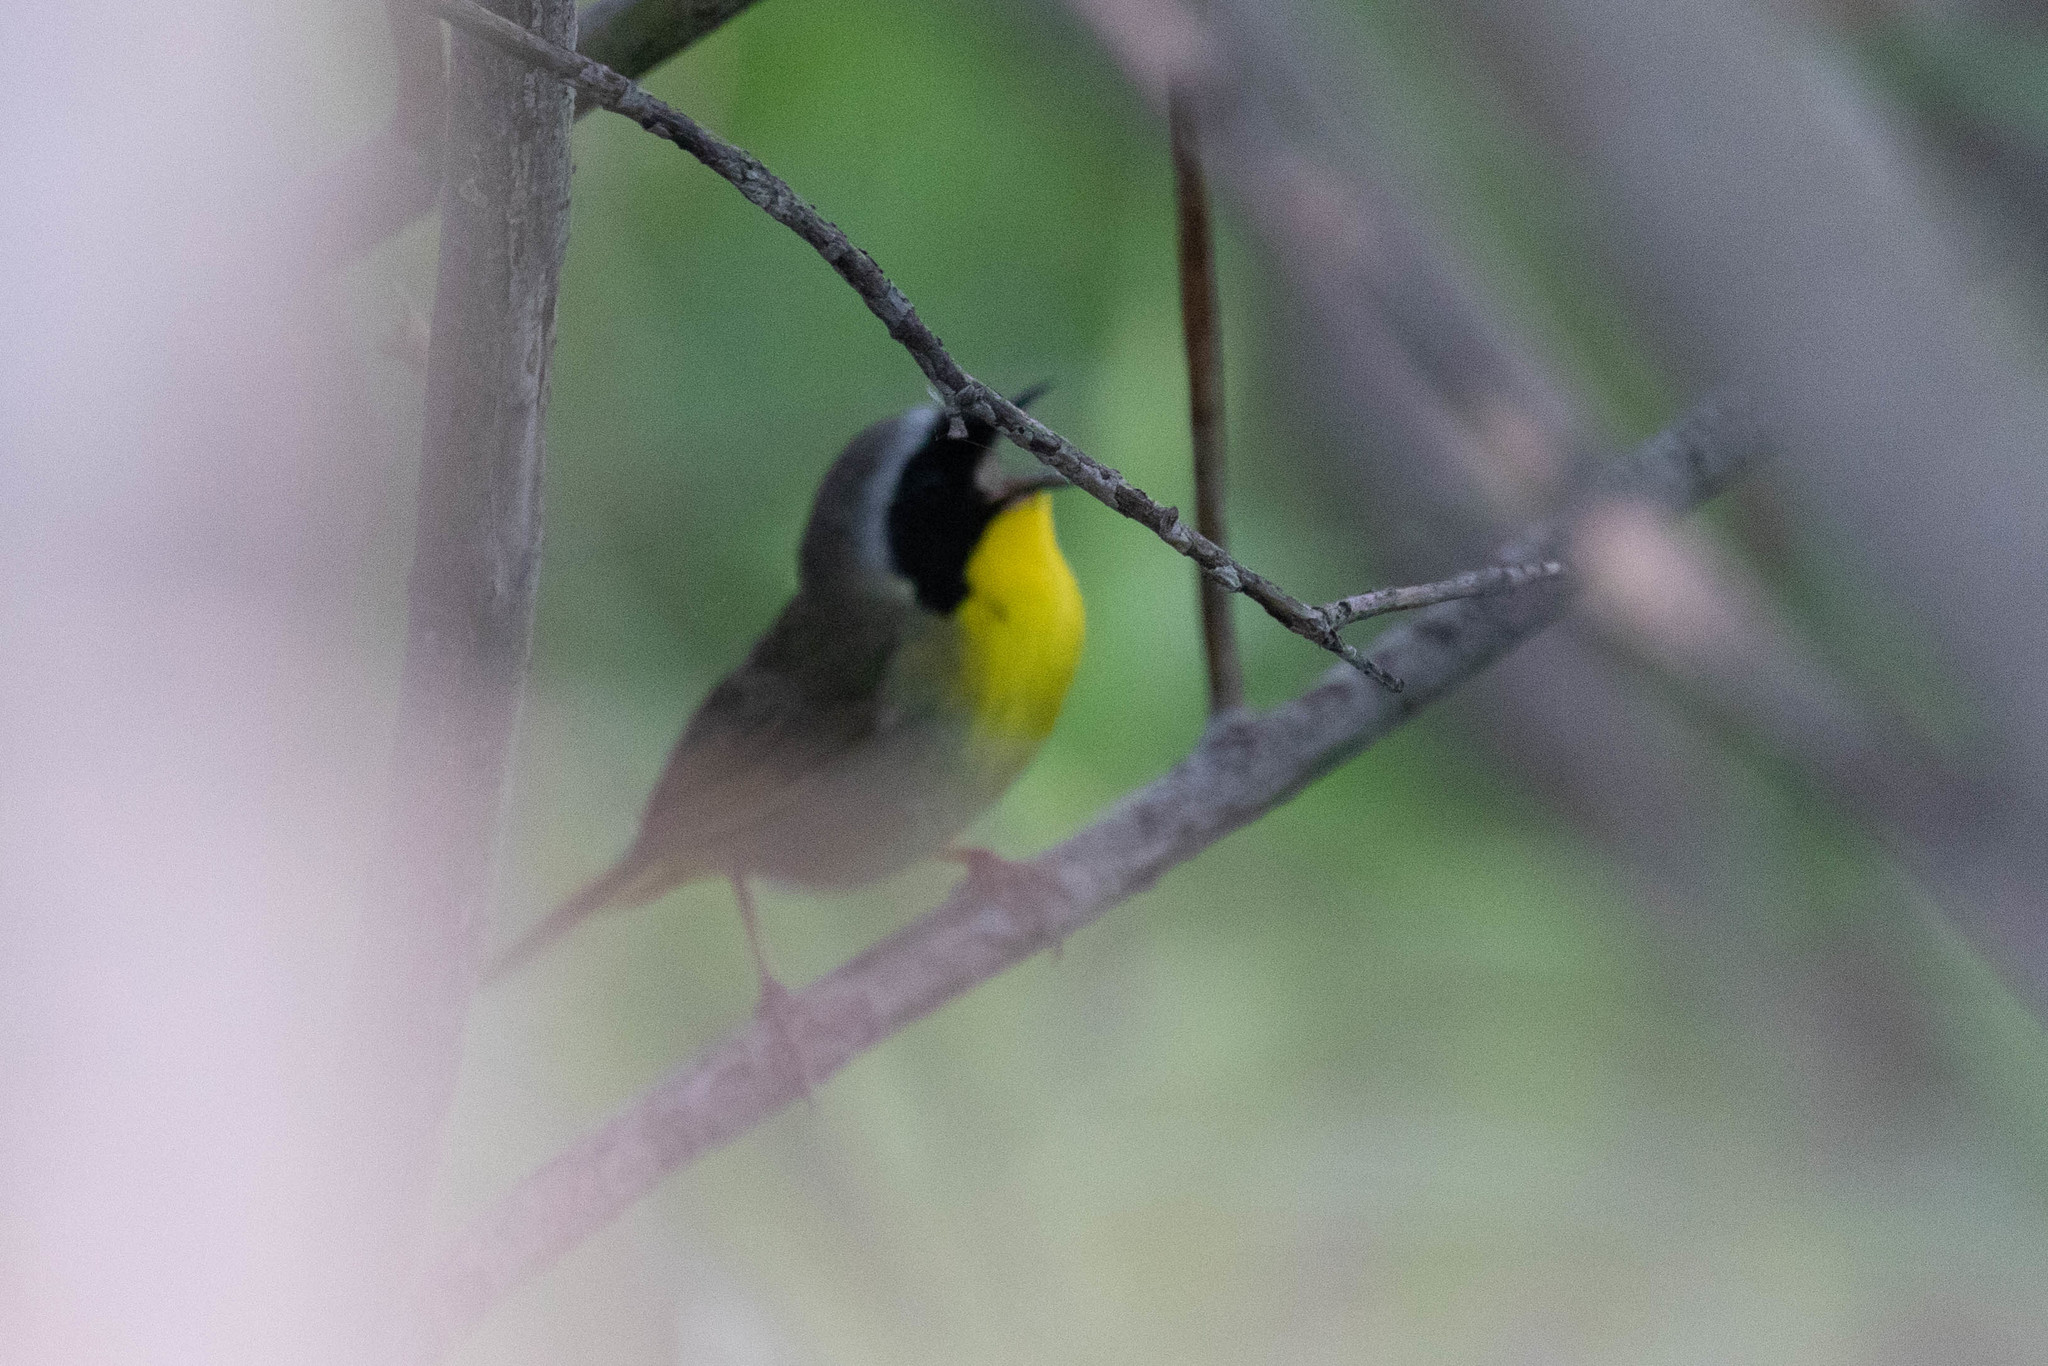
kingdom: Animalia
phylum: Chordata
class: Aves
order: Passeriformes
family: Parulidae
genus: Geothlypis
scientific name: Geothlypis trichas
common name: Common yellowthroat
